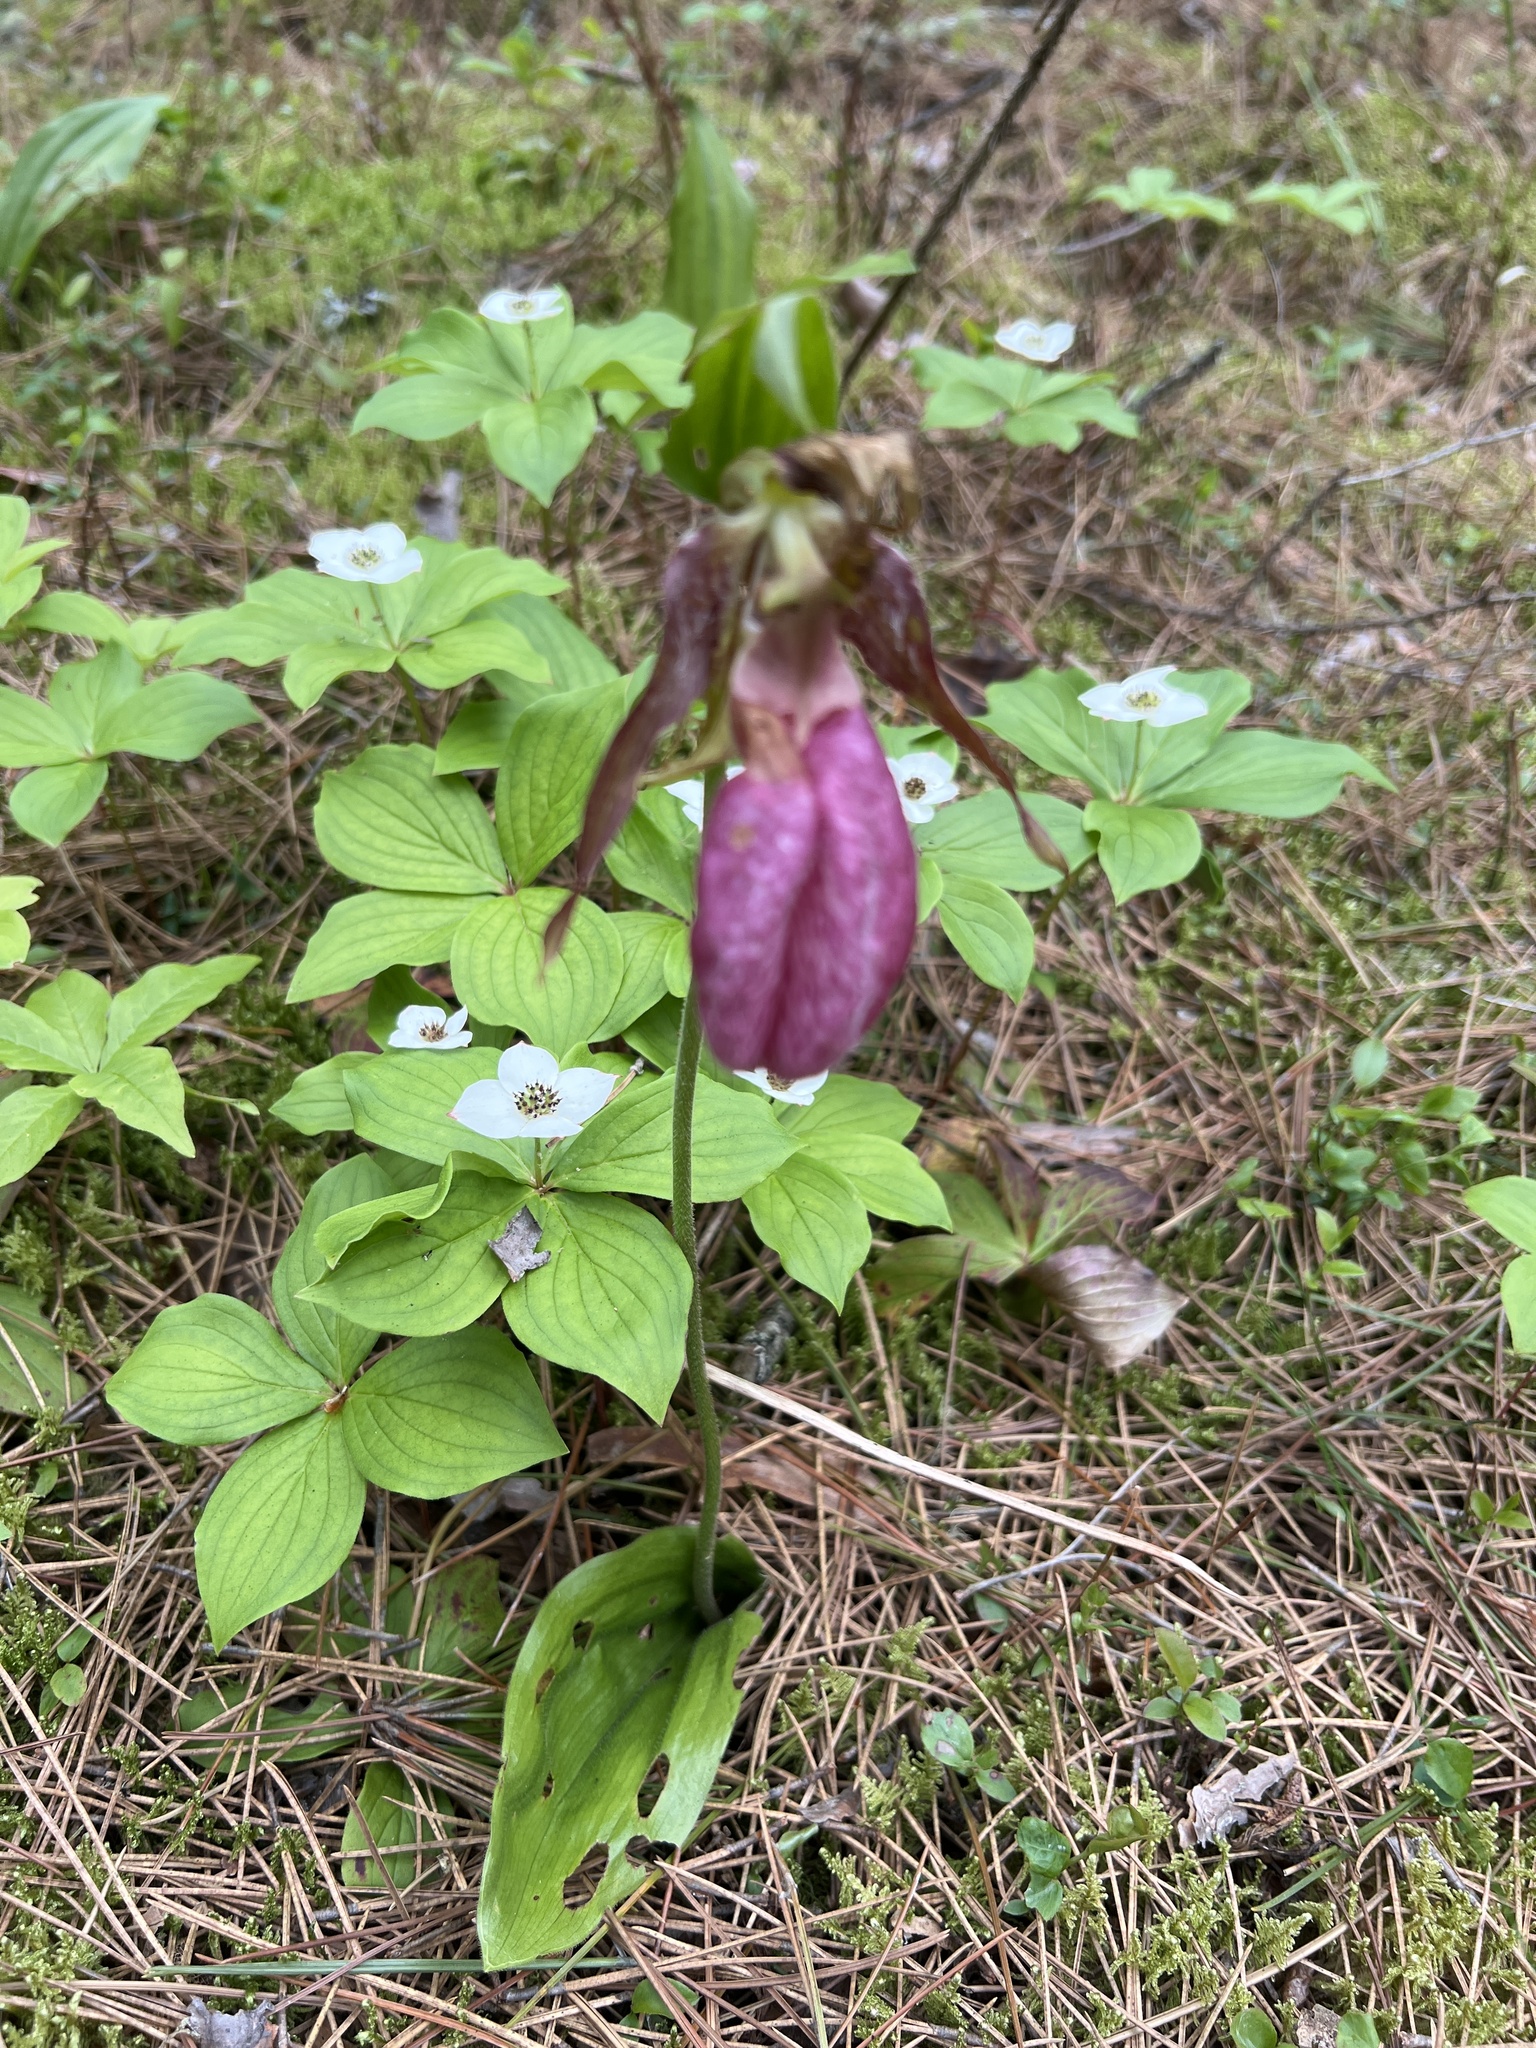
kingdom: Plantae
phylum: Tracheophyta
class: Liliopsida
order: Asparagales
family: Orchidaceae
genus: Cypripedium
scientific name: Cypripedium acaule
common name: Pink lady's-slipper
